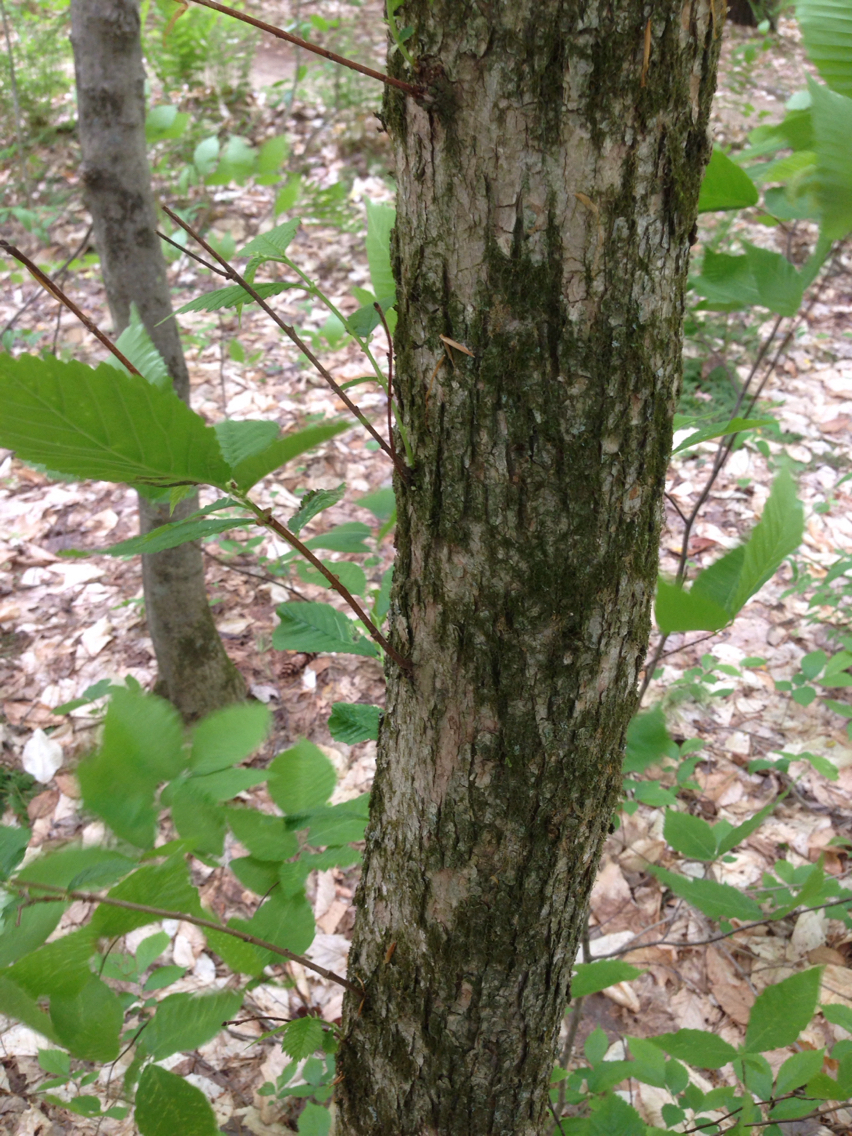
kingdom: Plantae
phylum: Tracheophyta
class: Magnoliopsida
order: Fagales
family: Betulaceae
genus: Ostrya
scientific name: Ostrya virginiana
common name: Ironwood
